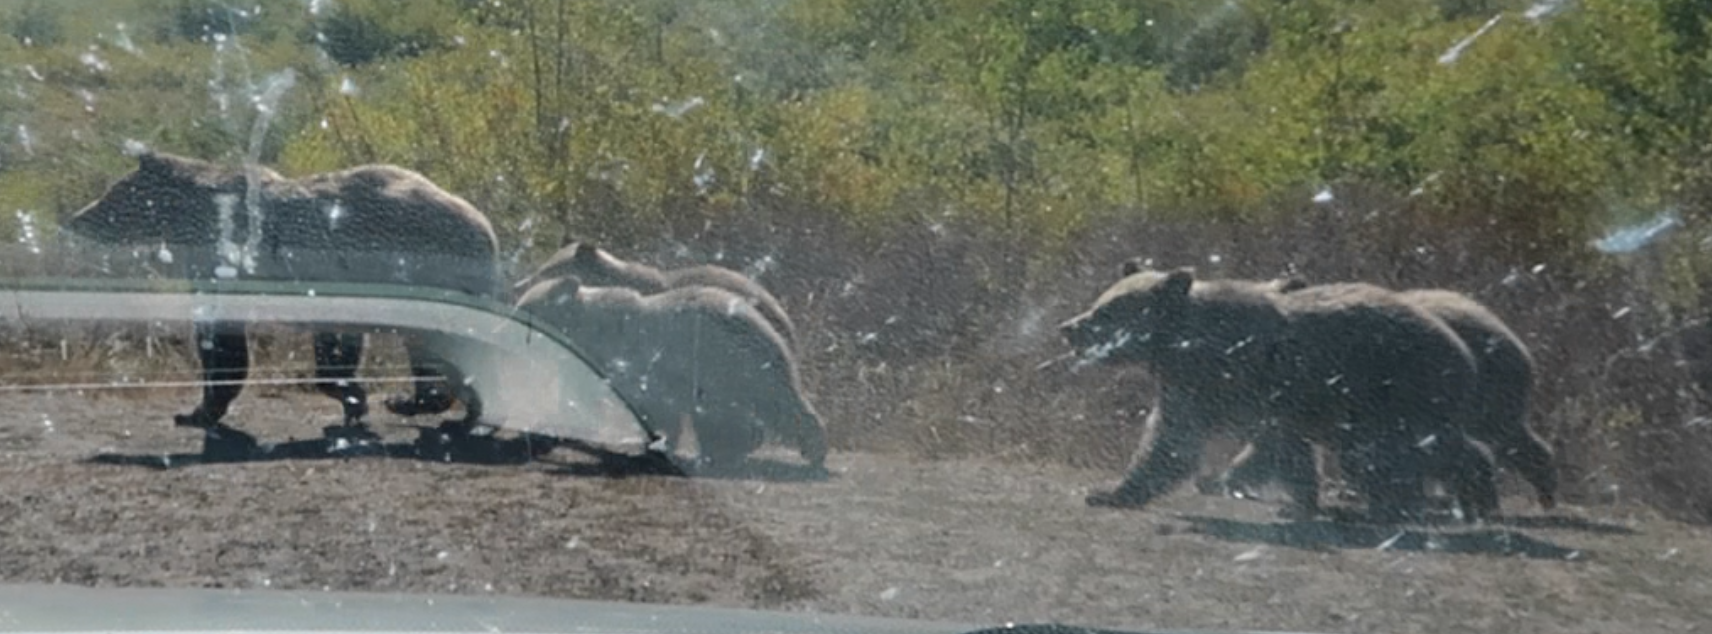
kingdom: Animalia
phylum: Chordata
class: Mammalia
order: Carnivora
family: Ursidae
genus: Ursus
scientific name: Ursus arctos
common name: Brown bear
